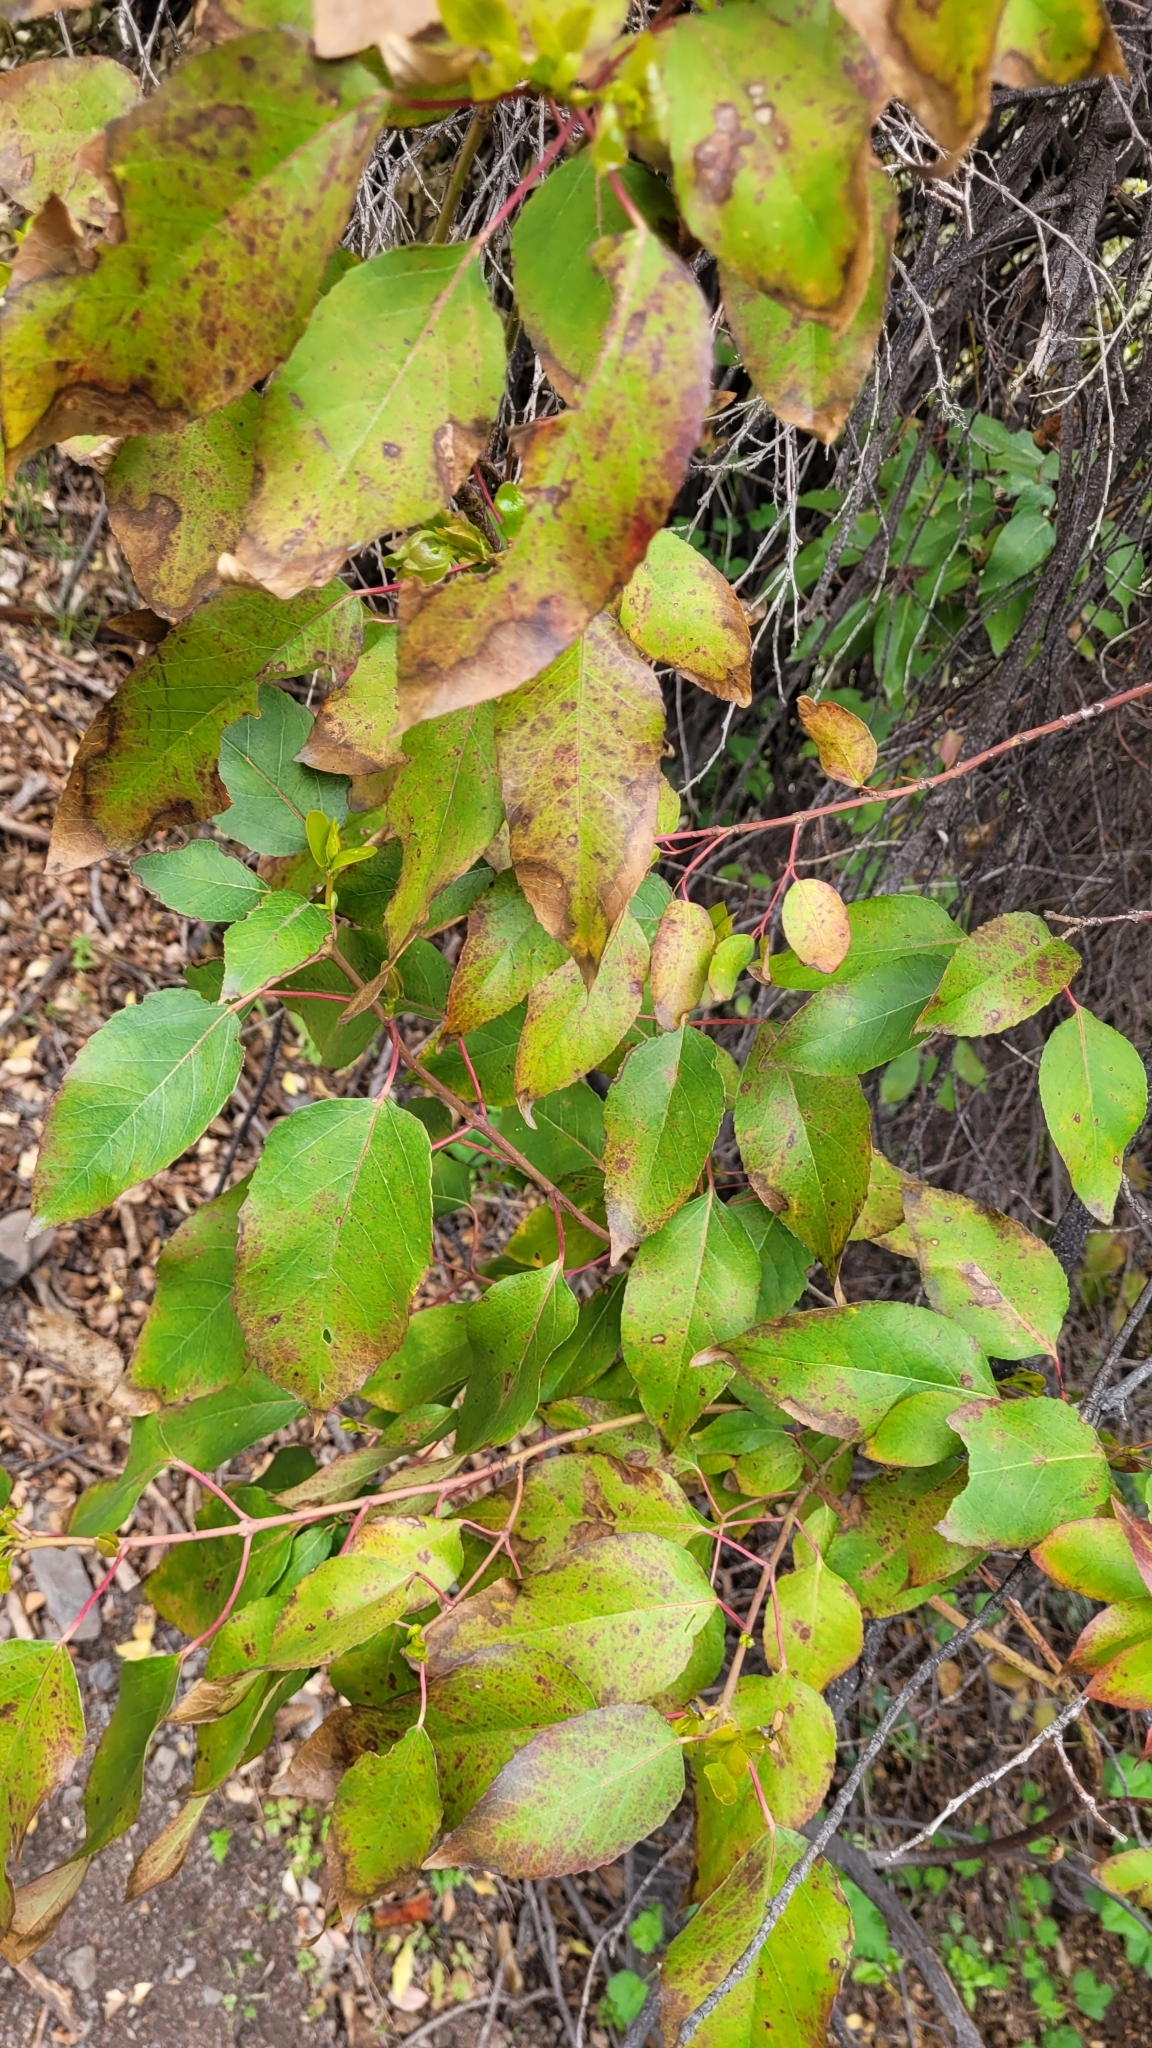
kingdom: Plantae
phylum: Tracheophyta
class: Magnoliopsida
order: Oxalidales
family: Elaeocarpaceae
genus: Aristotelia
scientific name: Aristotelia chilensis
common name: Maquei
